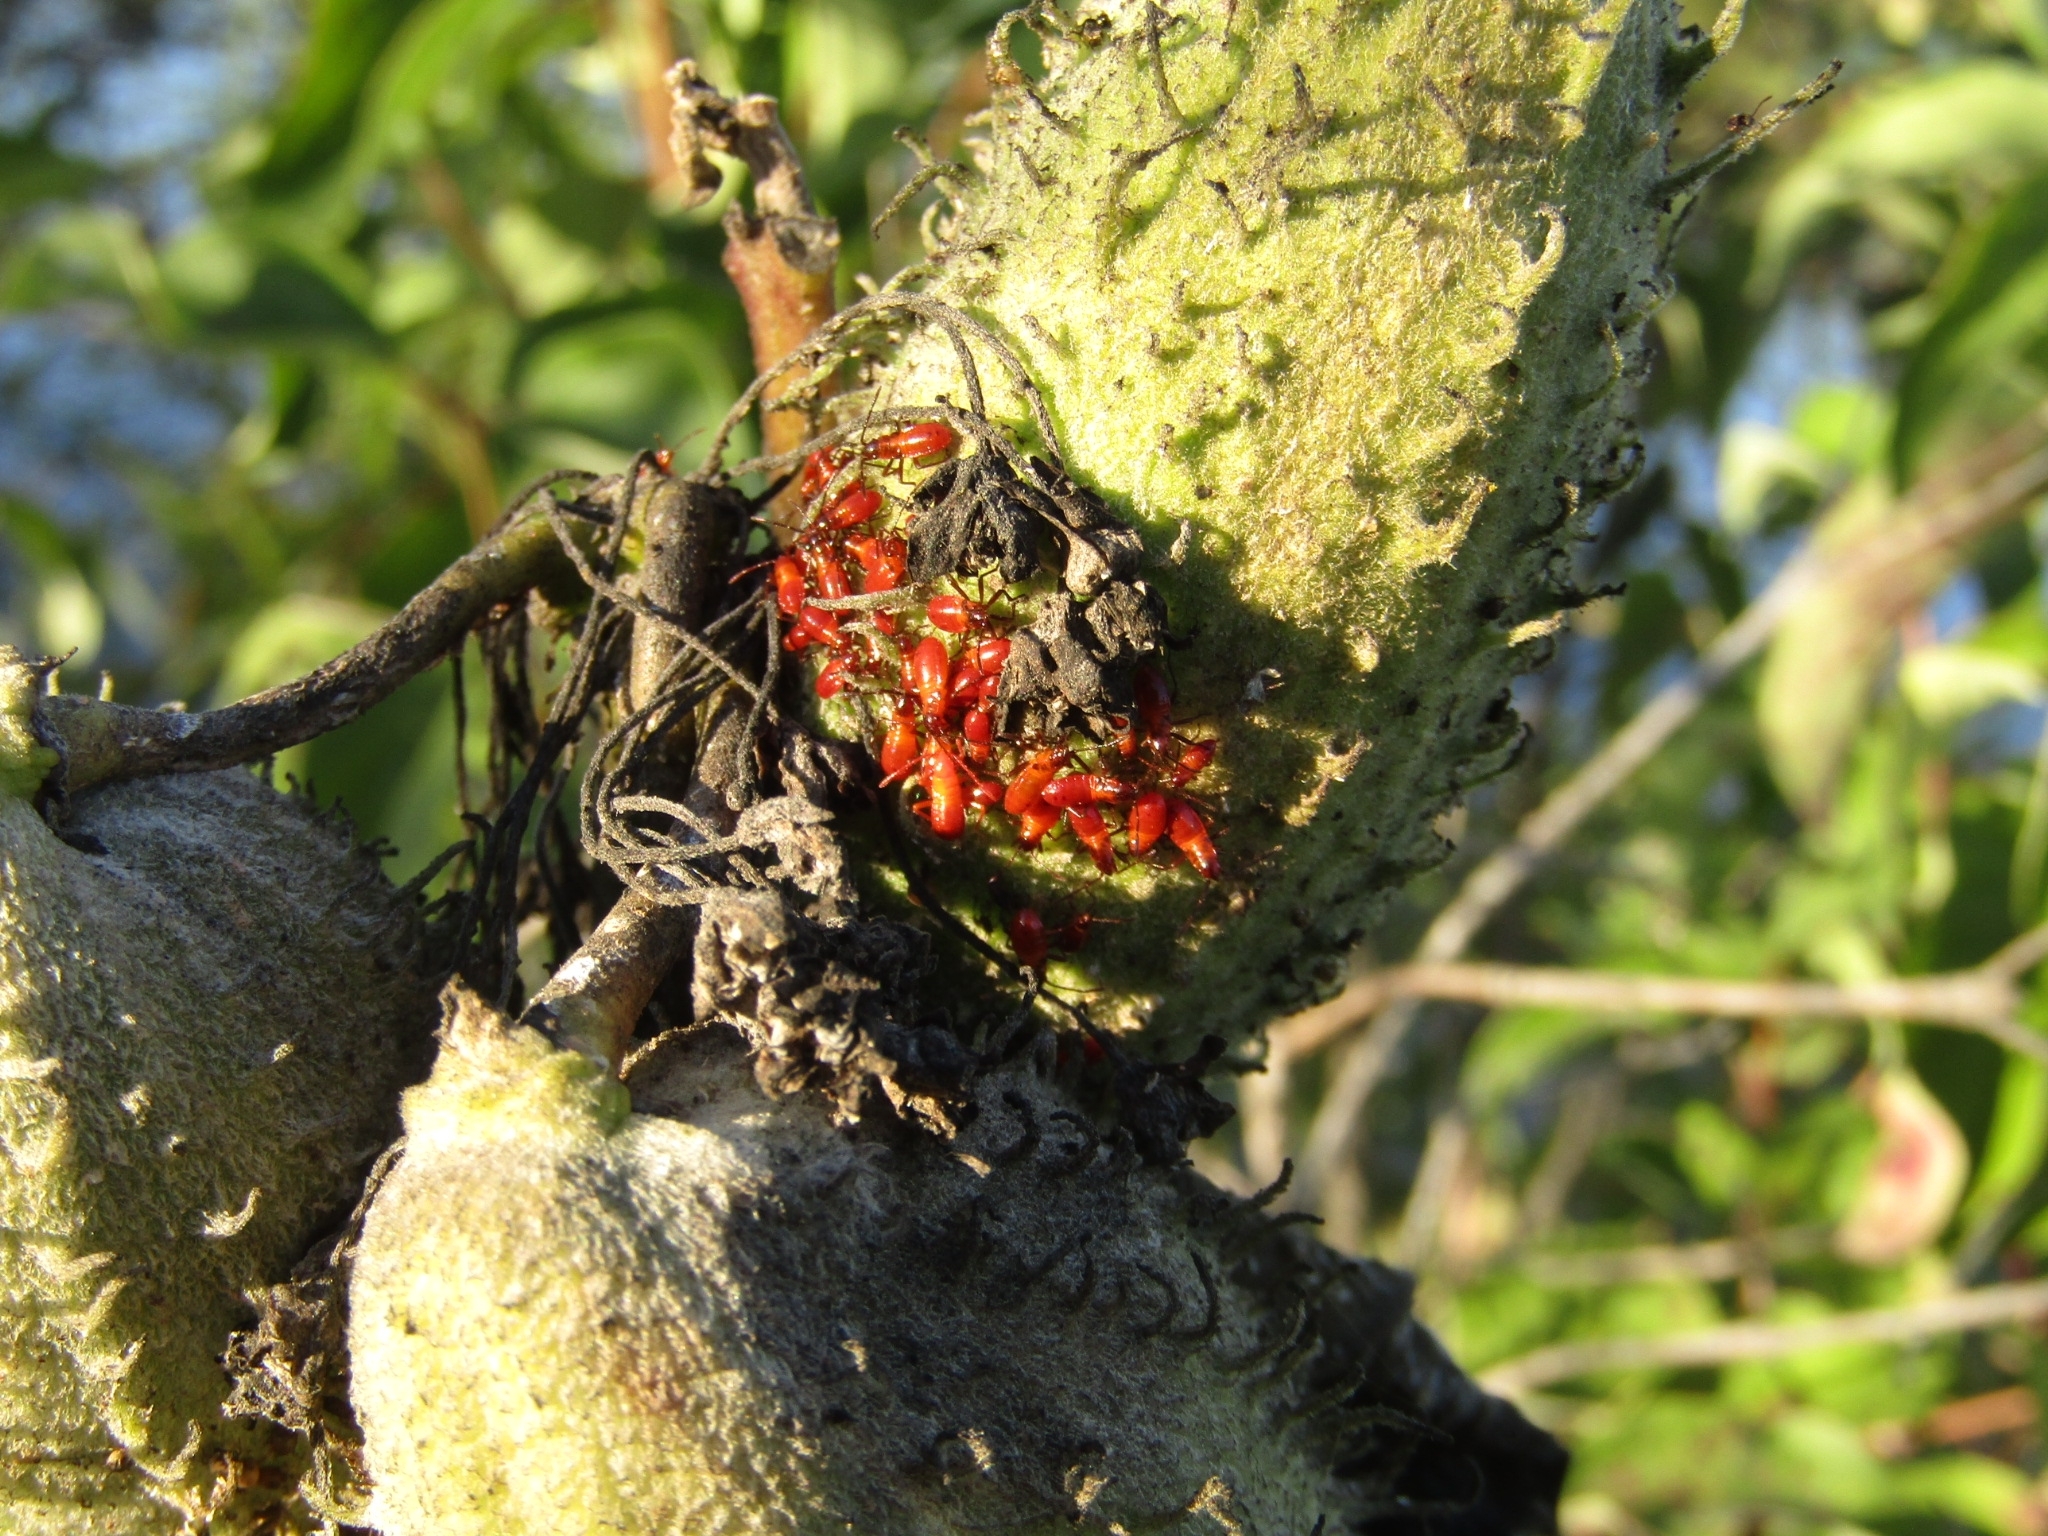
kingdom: Animalia
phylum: Arthropoda
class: Insecta
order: Hemiptera
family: Lygaeidae
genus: Oncopeltus
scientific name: Oncopeltus fasciatus
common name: Large milkweed bug
